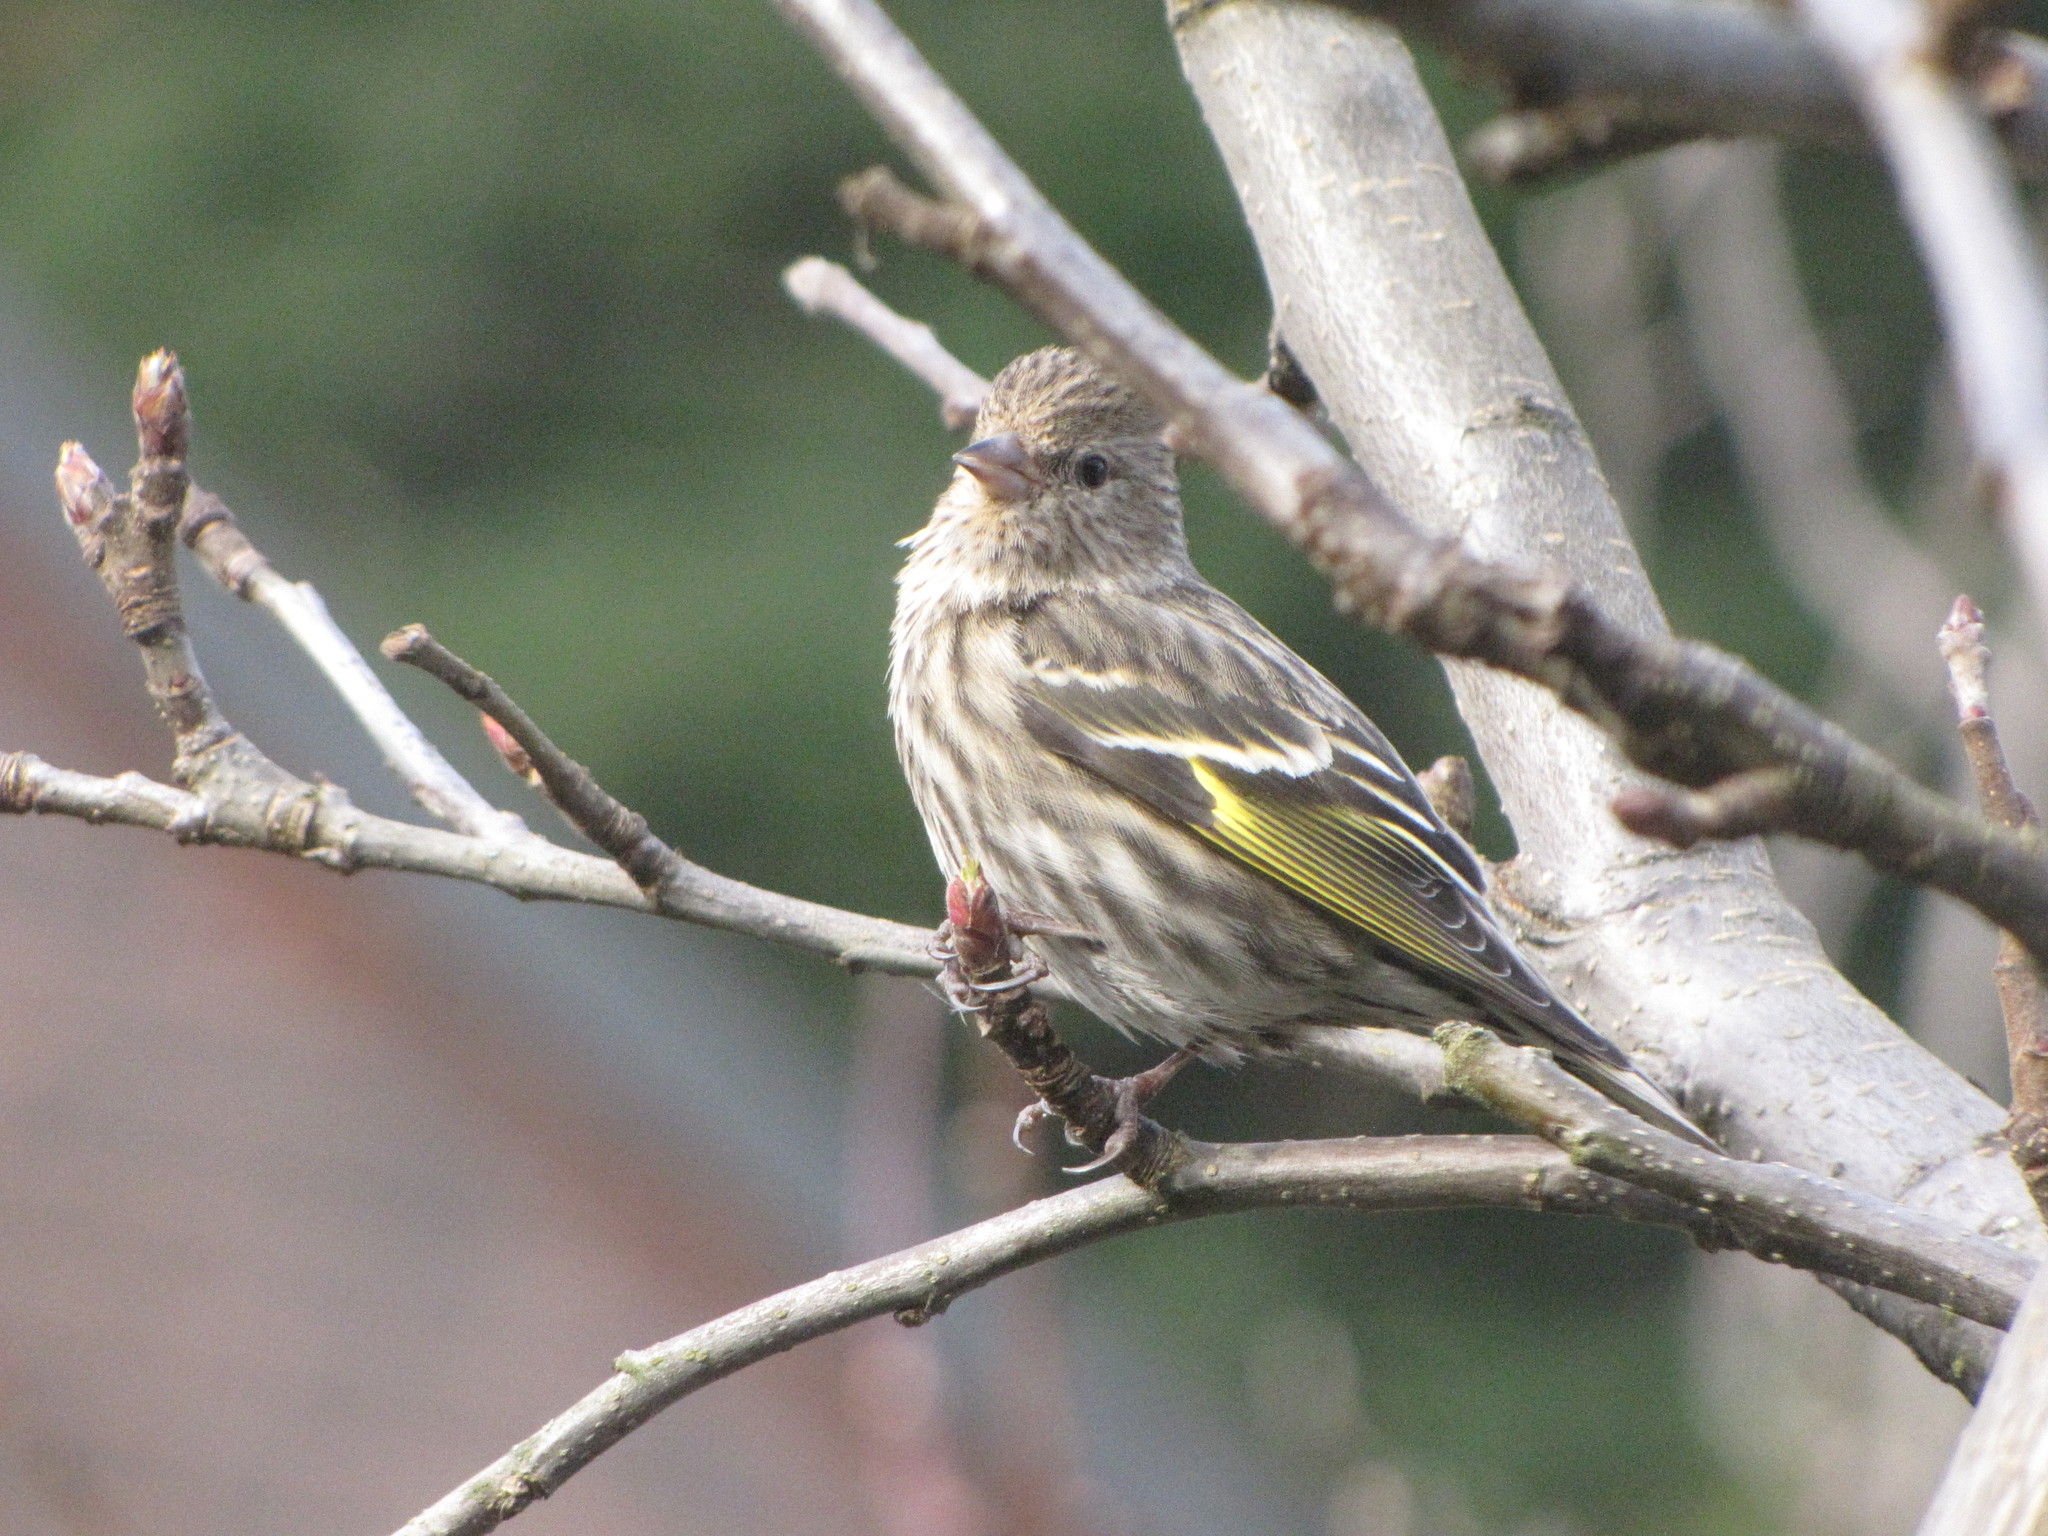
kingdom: Animalia
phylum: Chordata
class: Aves
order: Passeriformes
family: Fringillidae
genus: Spinus
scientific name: Spinus pinus
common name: Pine siskin
